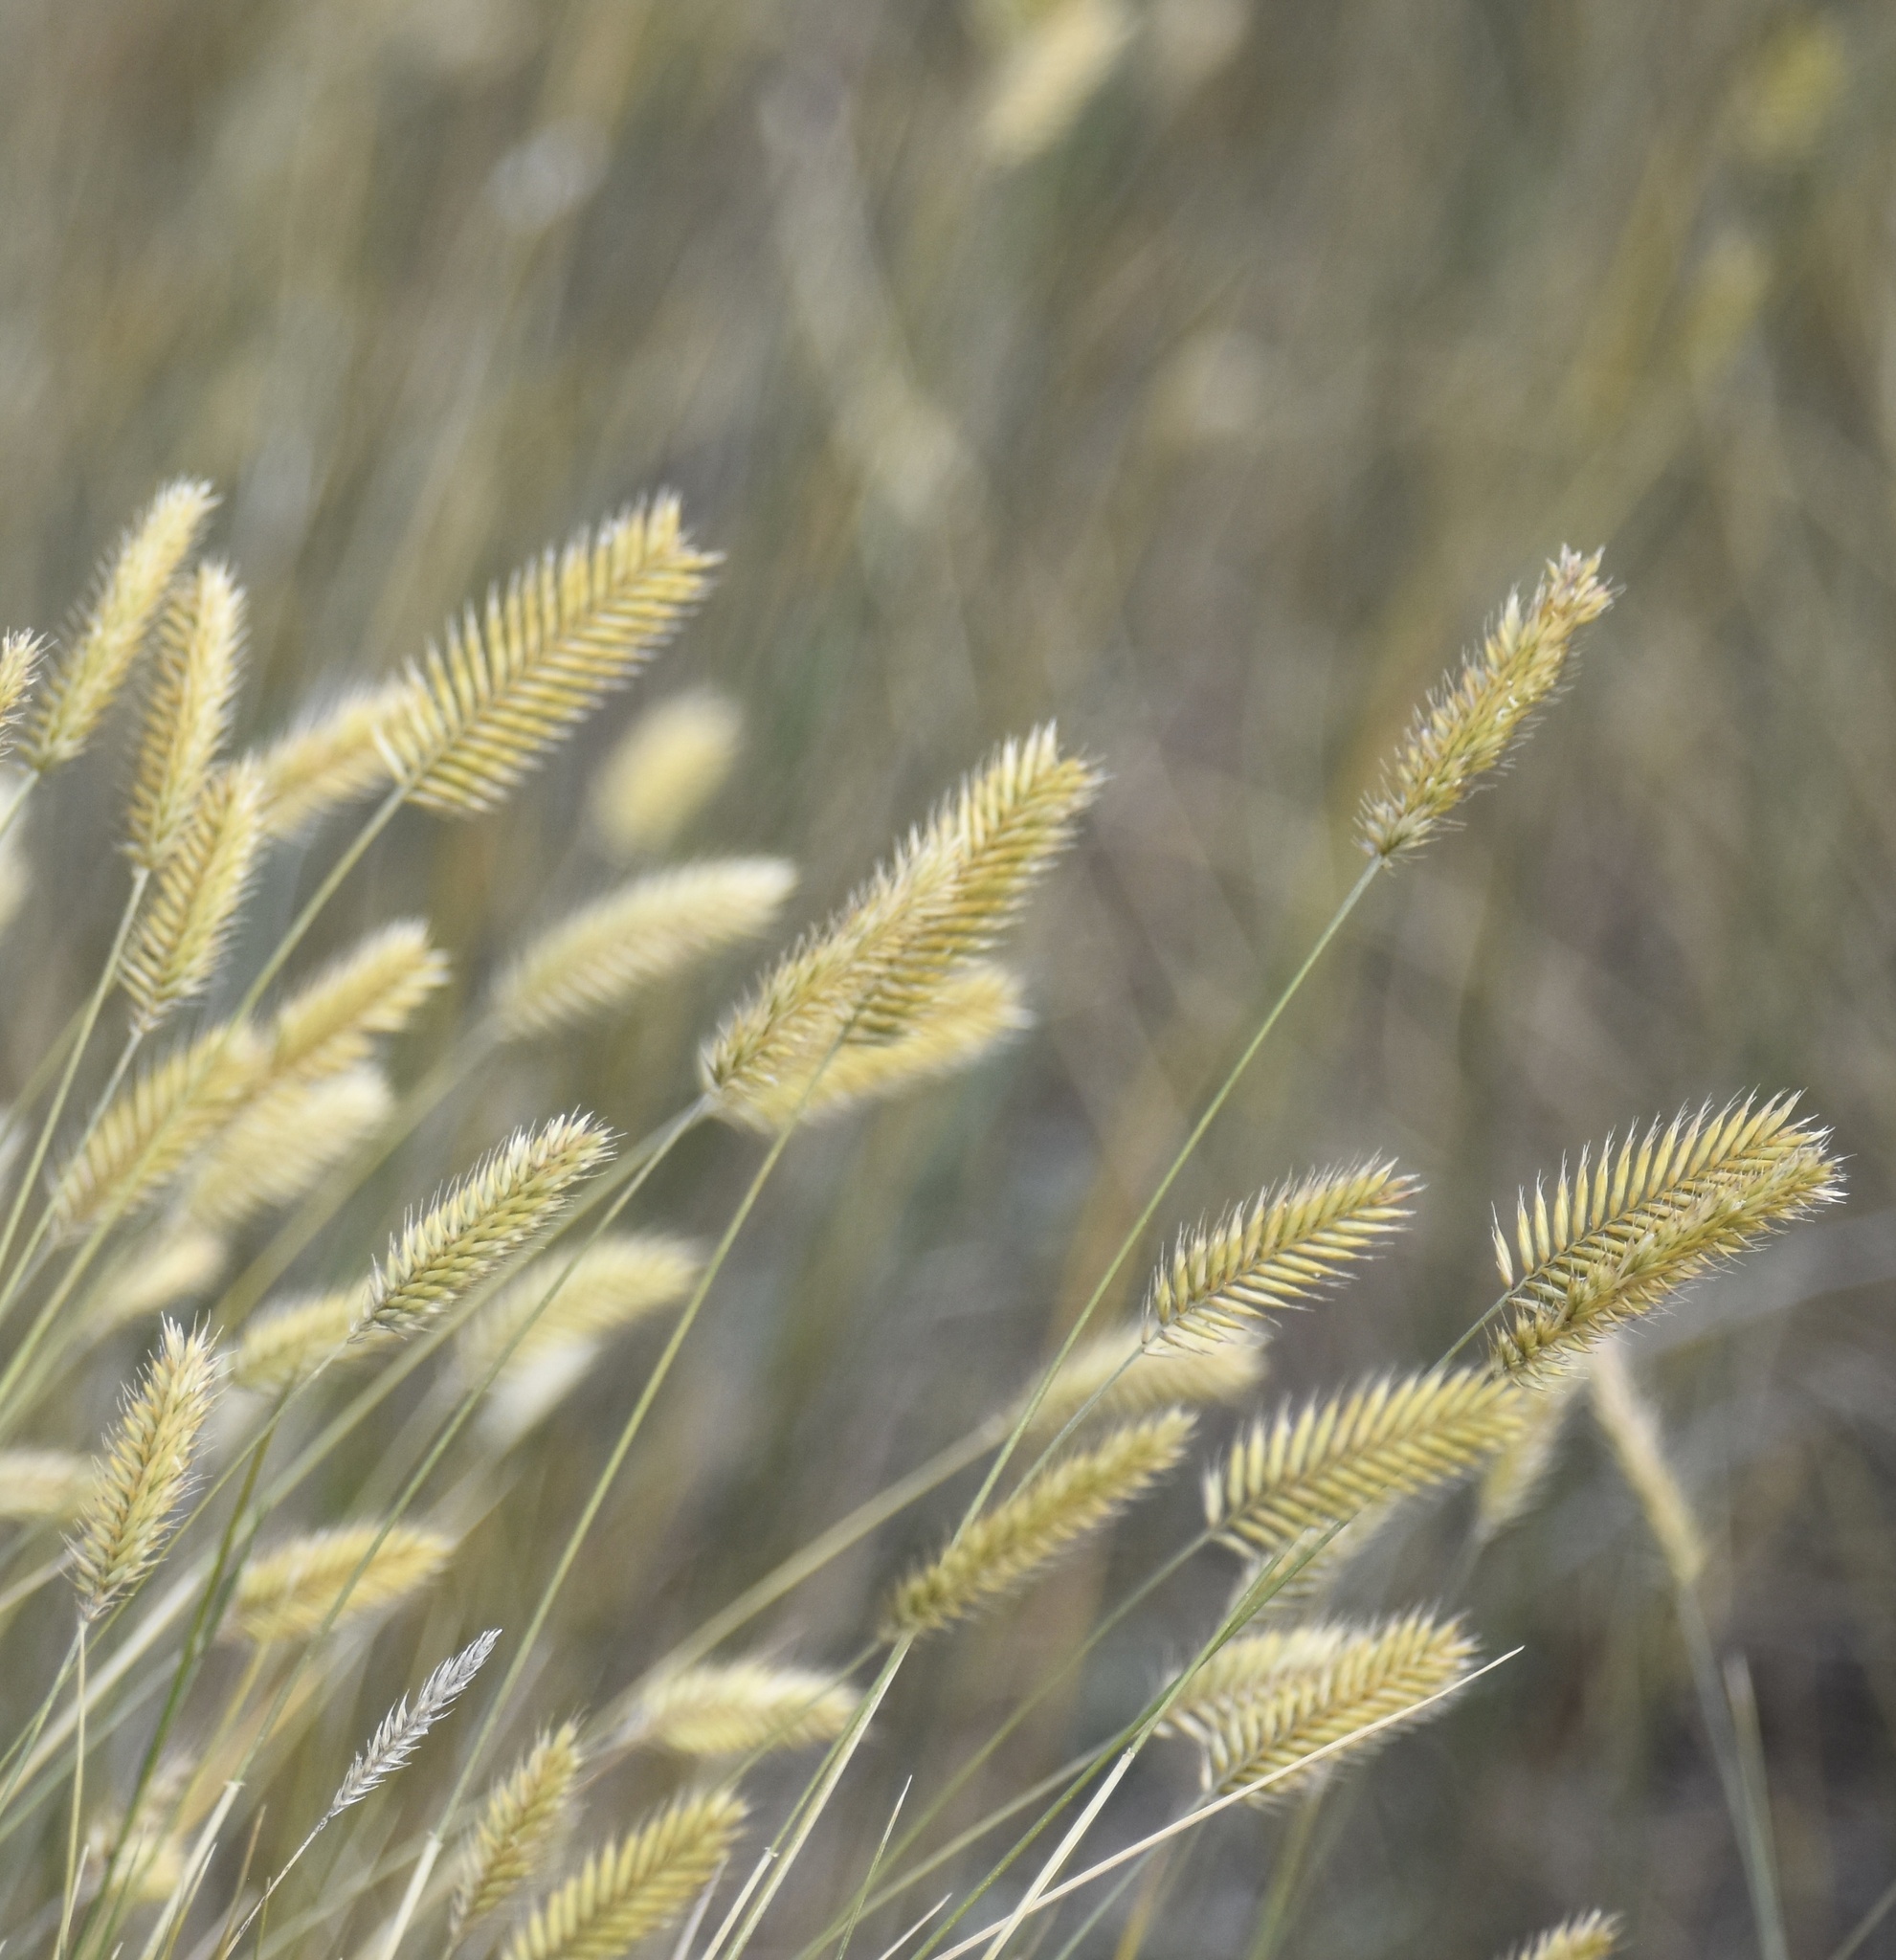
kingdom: Plantae
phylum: Tracheophyta
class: Liliopsida
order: Poales
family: Poaceae
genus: Agropyron
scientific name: Agropyron cristatum
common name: Crested wheatgrass
